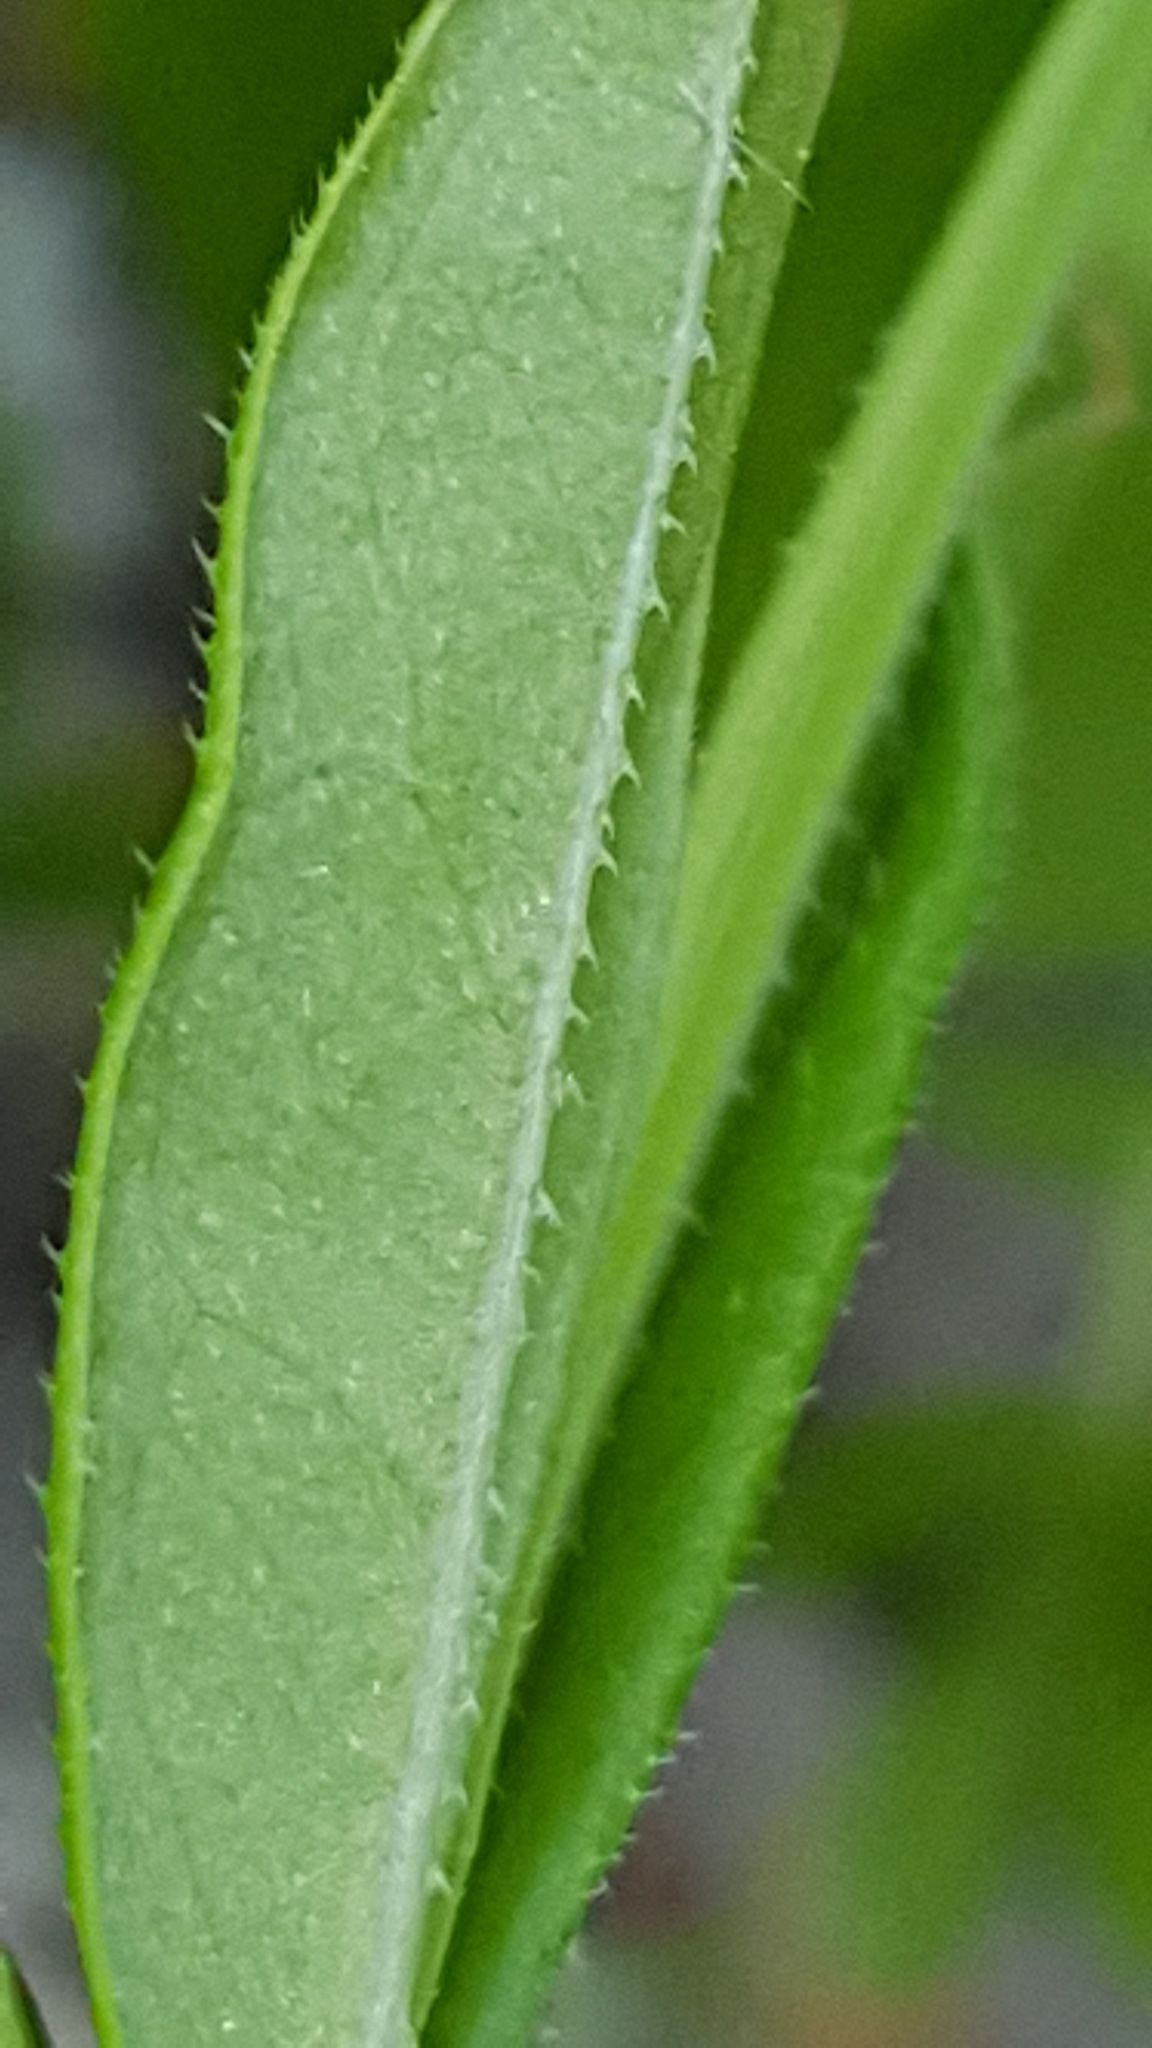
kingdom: Plantae
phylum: Tracheophyta
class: Magnoliopsida
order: Gentianales
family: Rubiaceae
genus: Galium
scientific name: Galium triflorum
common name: Fragrant bedstraw
